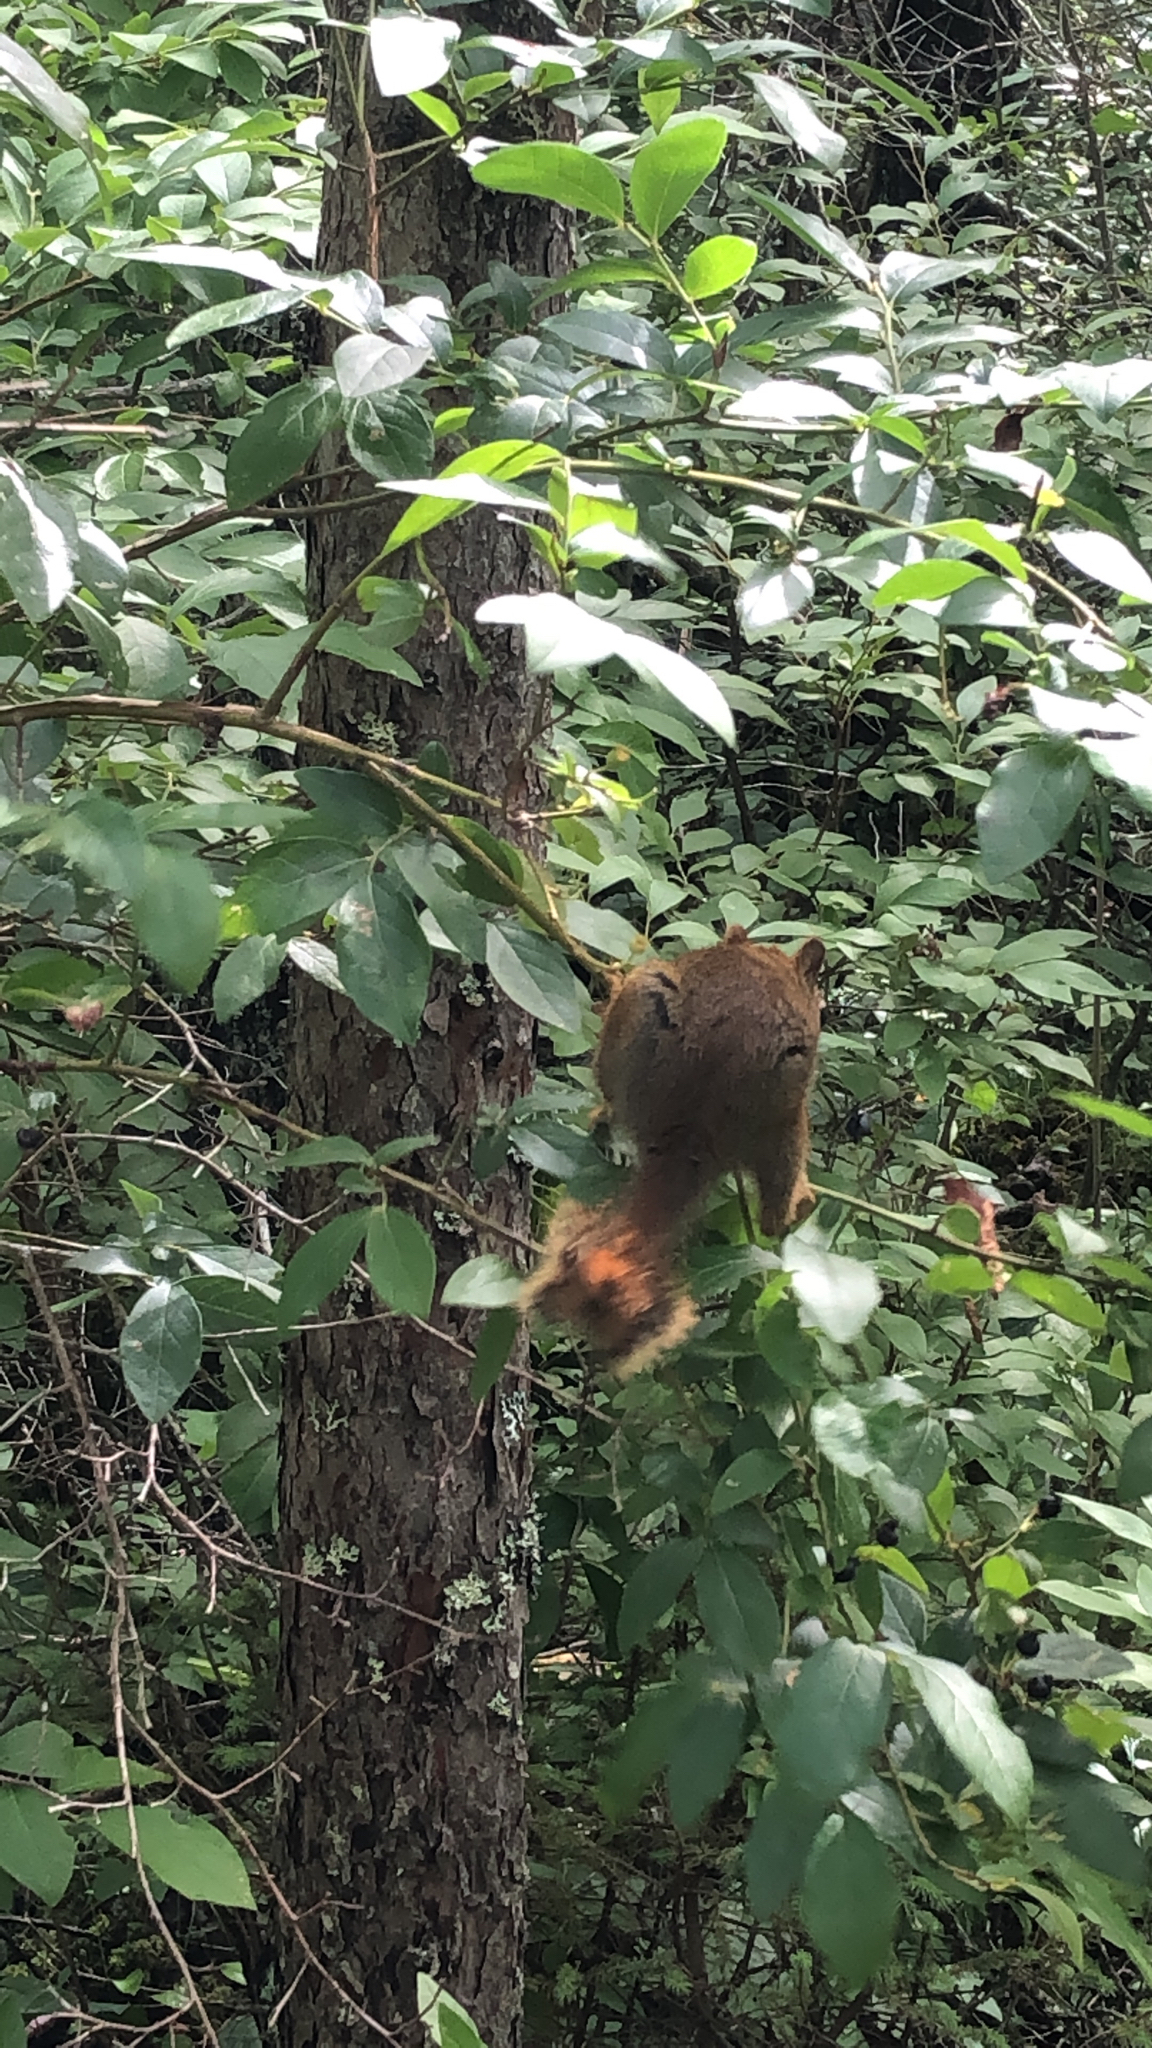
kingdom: Animalia
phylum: Chordata
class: Mammalia
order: Rodentia
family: Sciuridae
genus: Tamiasciurus
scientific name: Tamiasciurus hudsonicus
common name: Red squirrel
